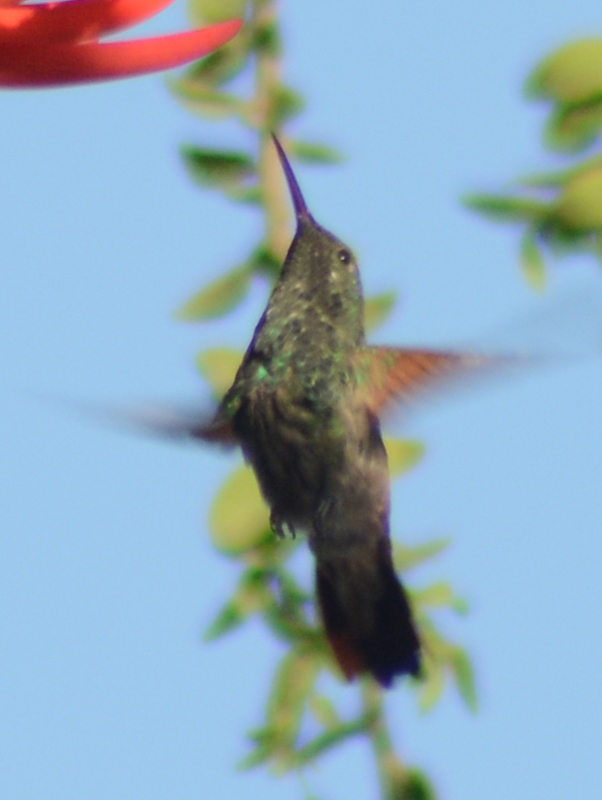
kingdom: Animalia
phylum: Chordata
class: Aves
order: Apodiformes
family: Trochilidae
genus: Saucerottia
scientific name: Saucerottia beryllina
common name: Berylline hummingbird
